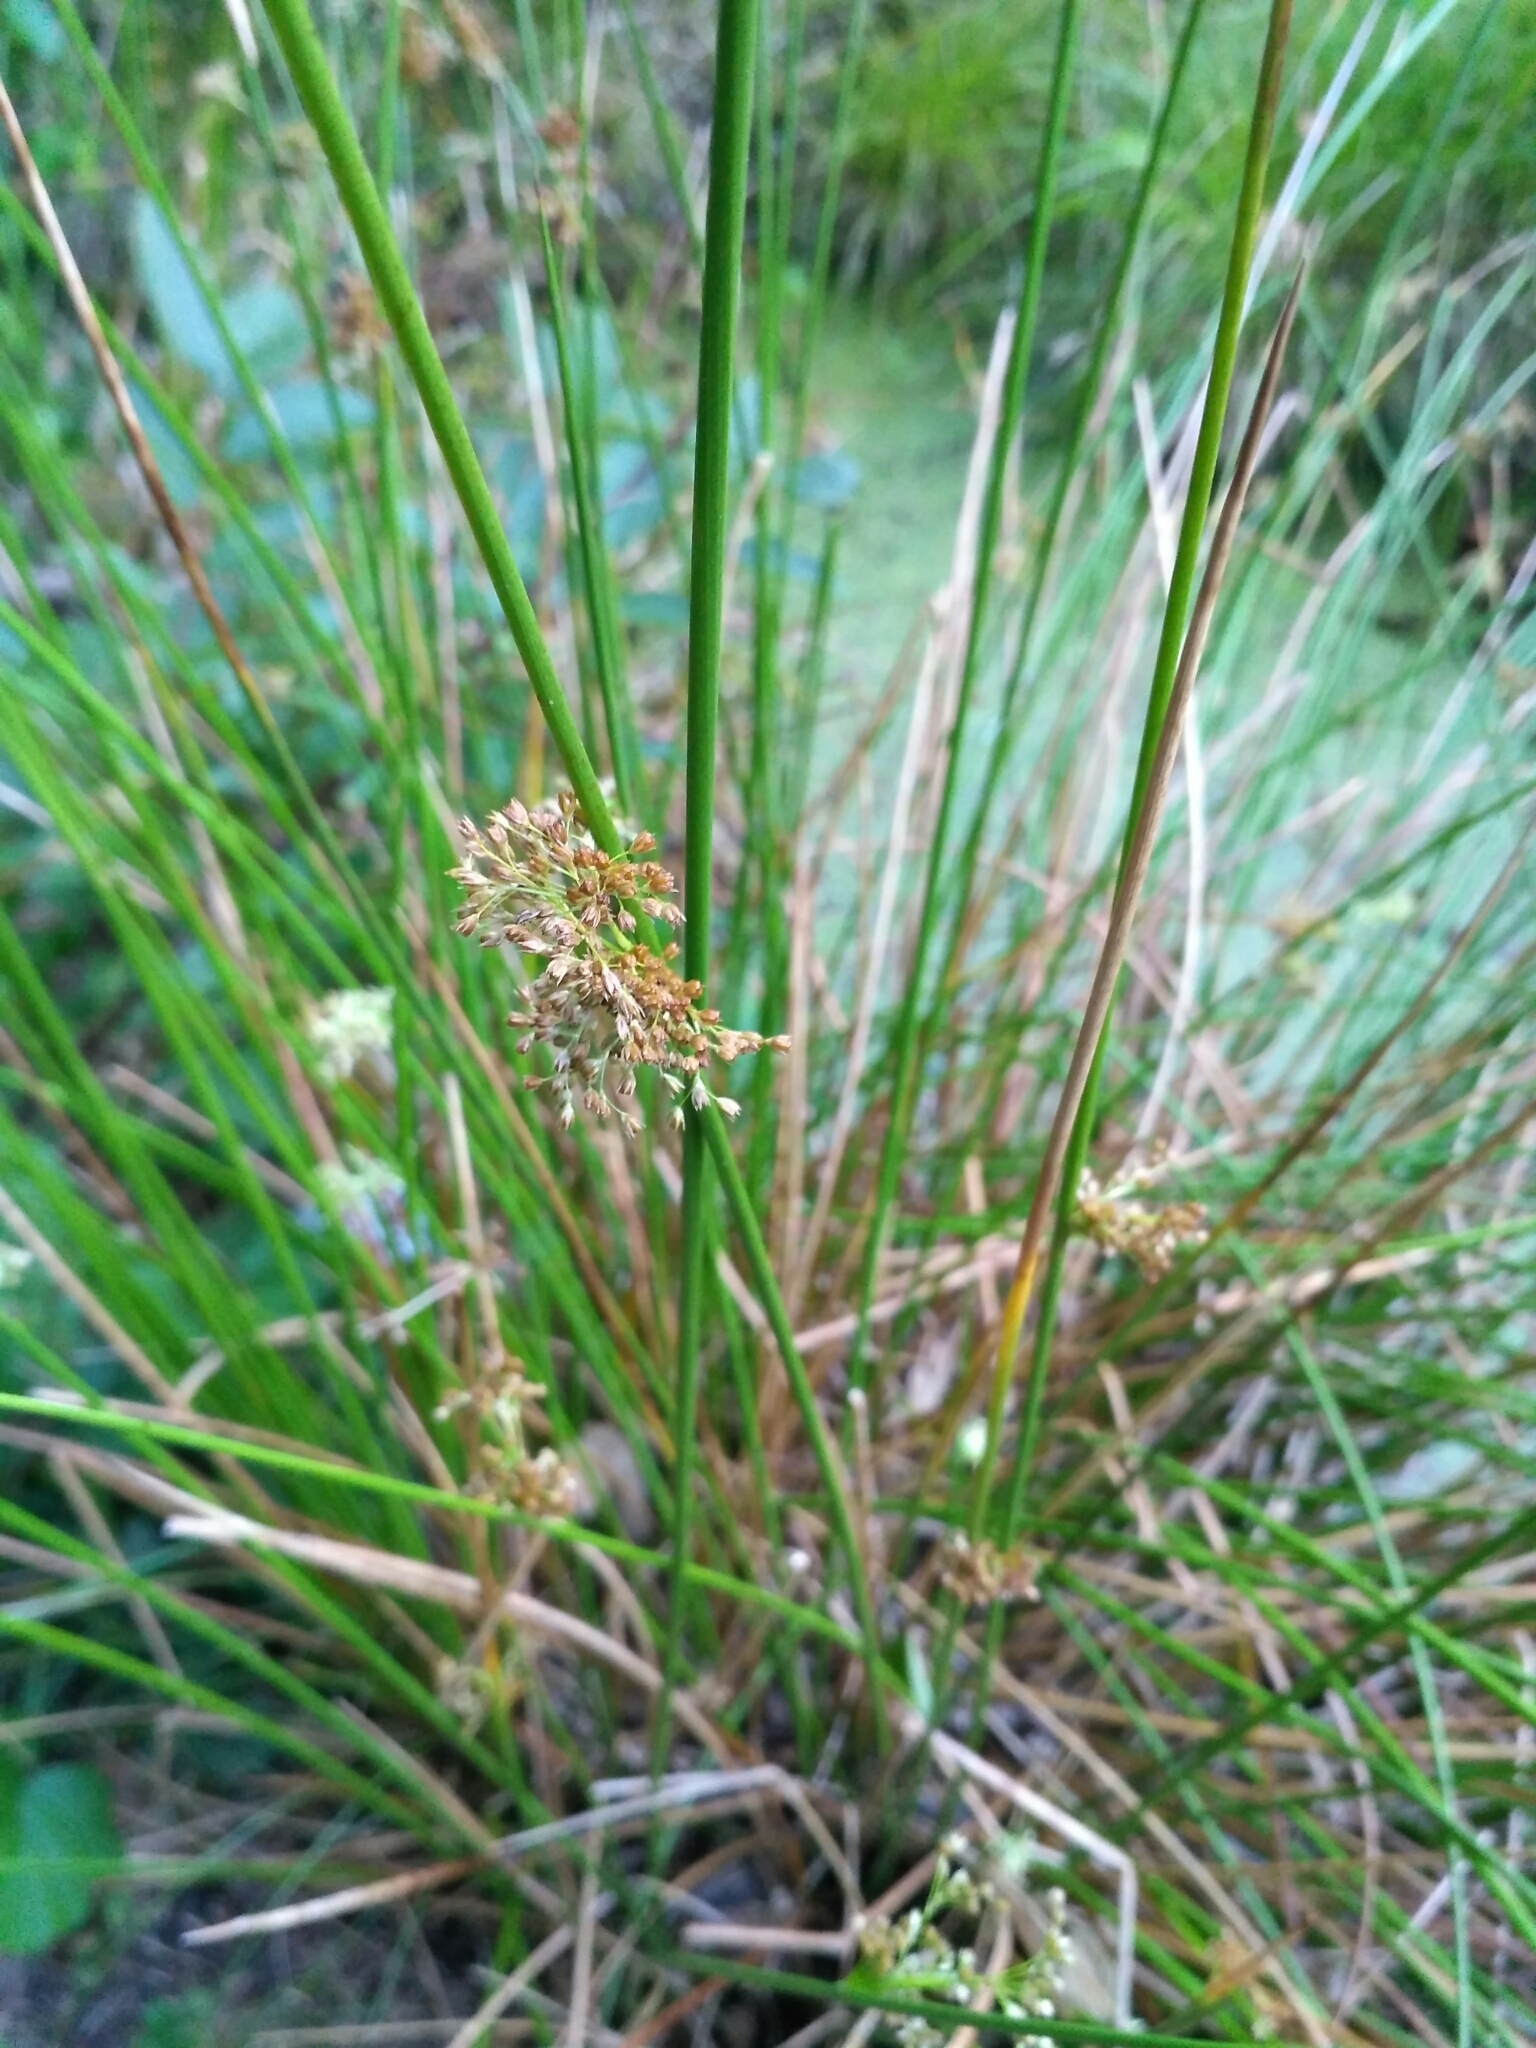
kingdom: Plantae
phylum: Tracheophyta
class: Liliopsida
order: Poales
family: Juncaceae
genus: Juncus
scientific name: Juncus effusus
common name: Soft rush
